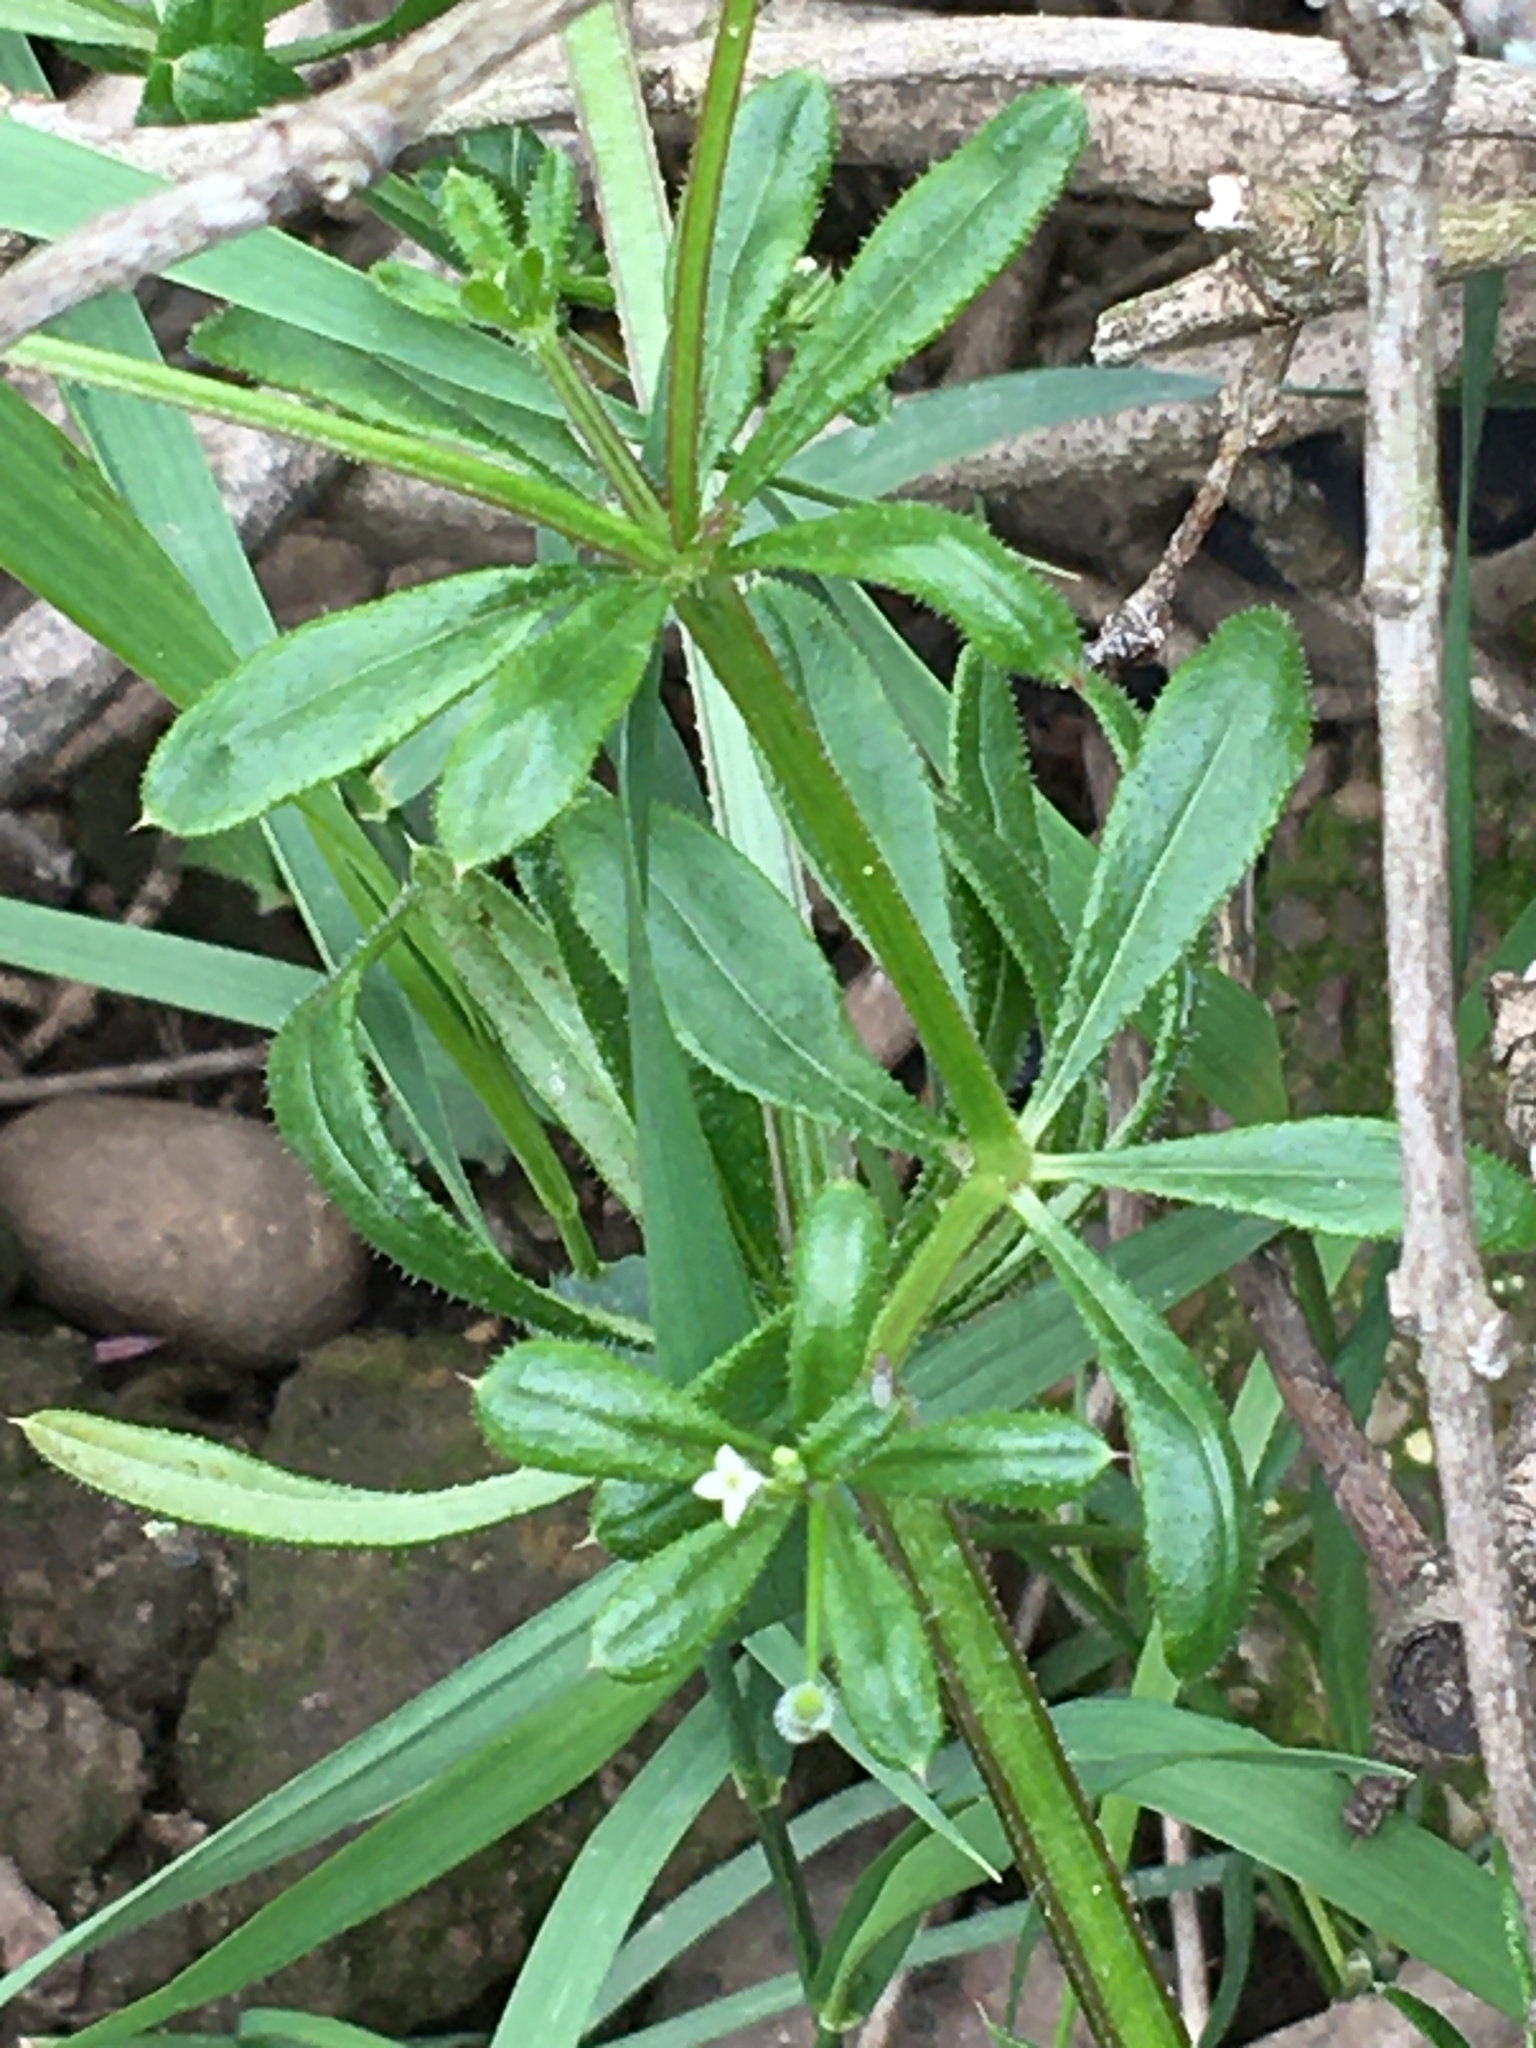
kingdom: Plantae
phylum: Tracheophyta
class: Magnoliopsida
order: Gentianales
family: Rubiaceae
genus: Galium
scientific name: Galium aparine
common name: Cleavers
